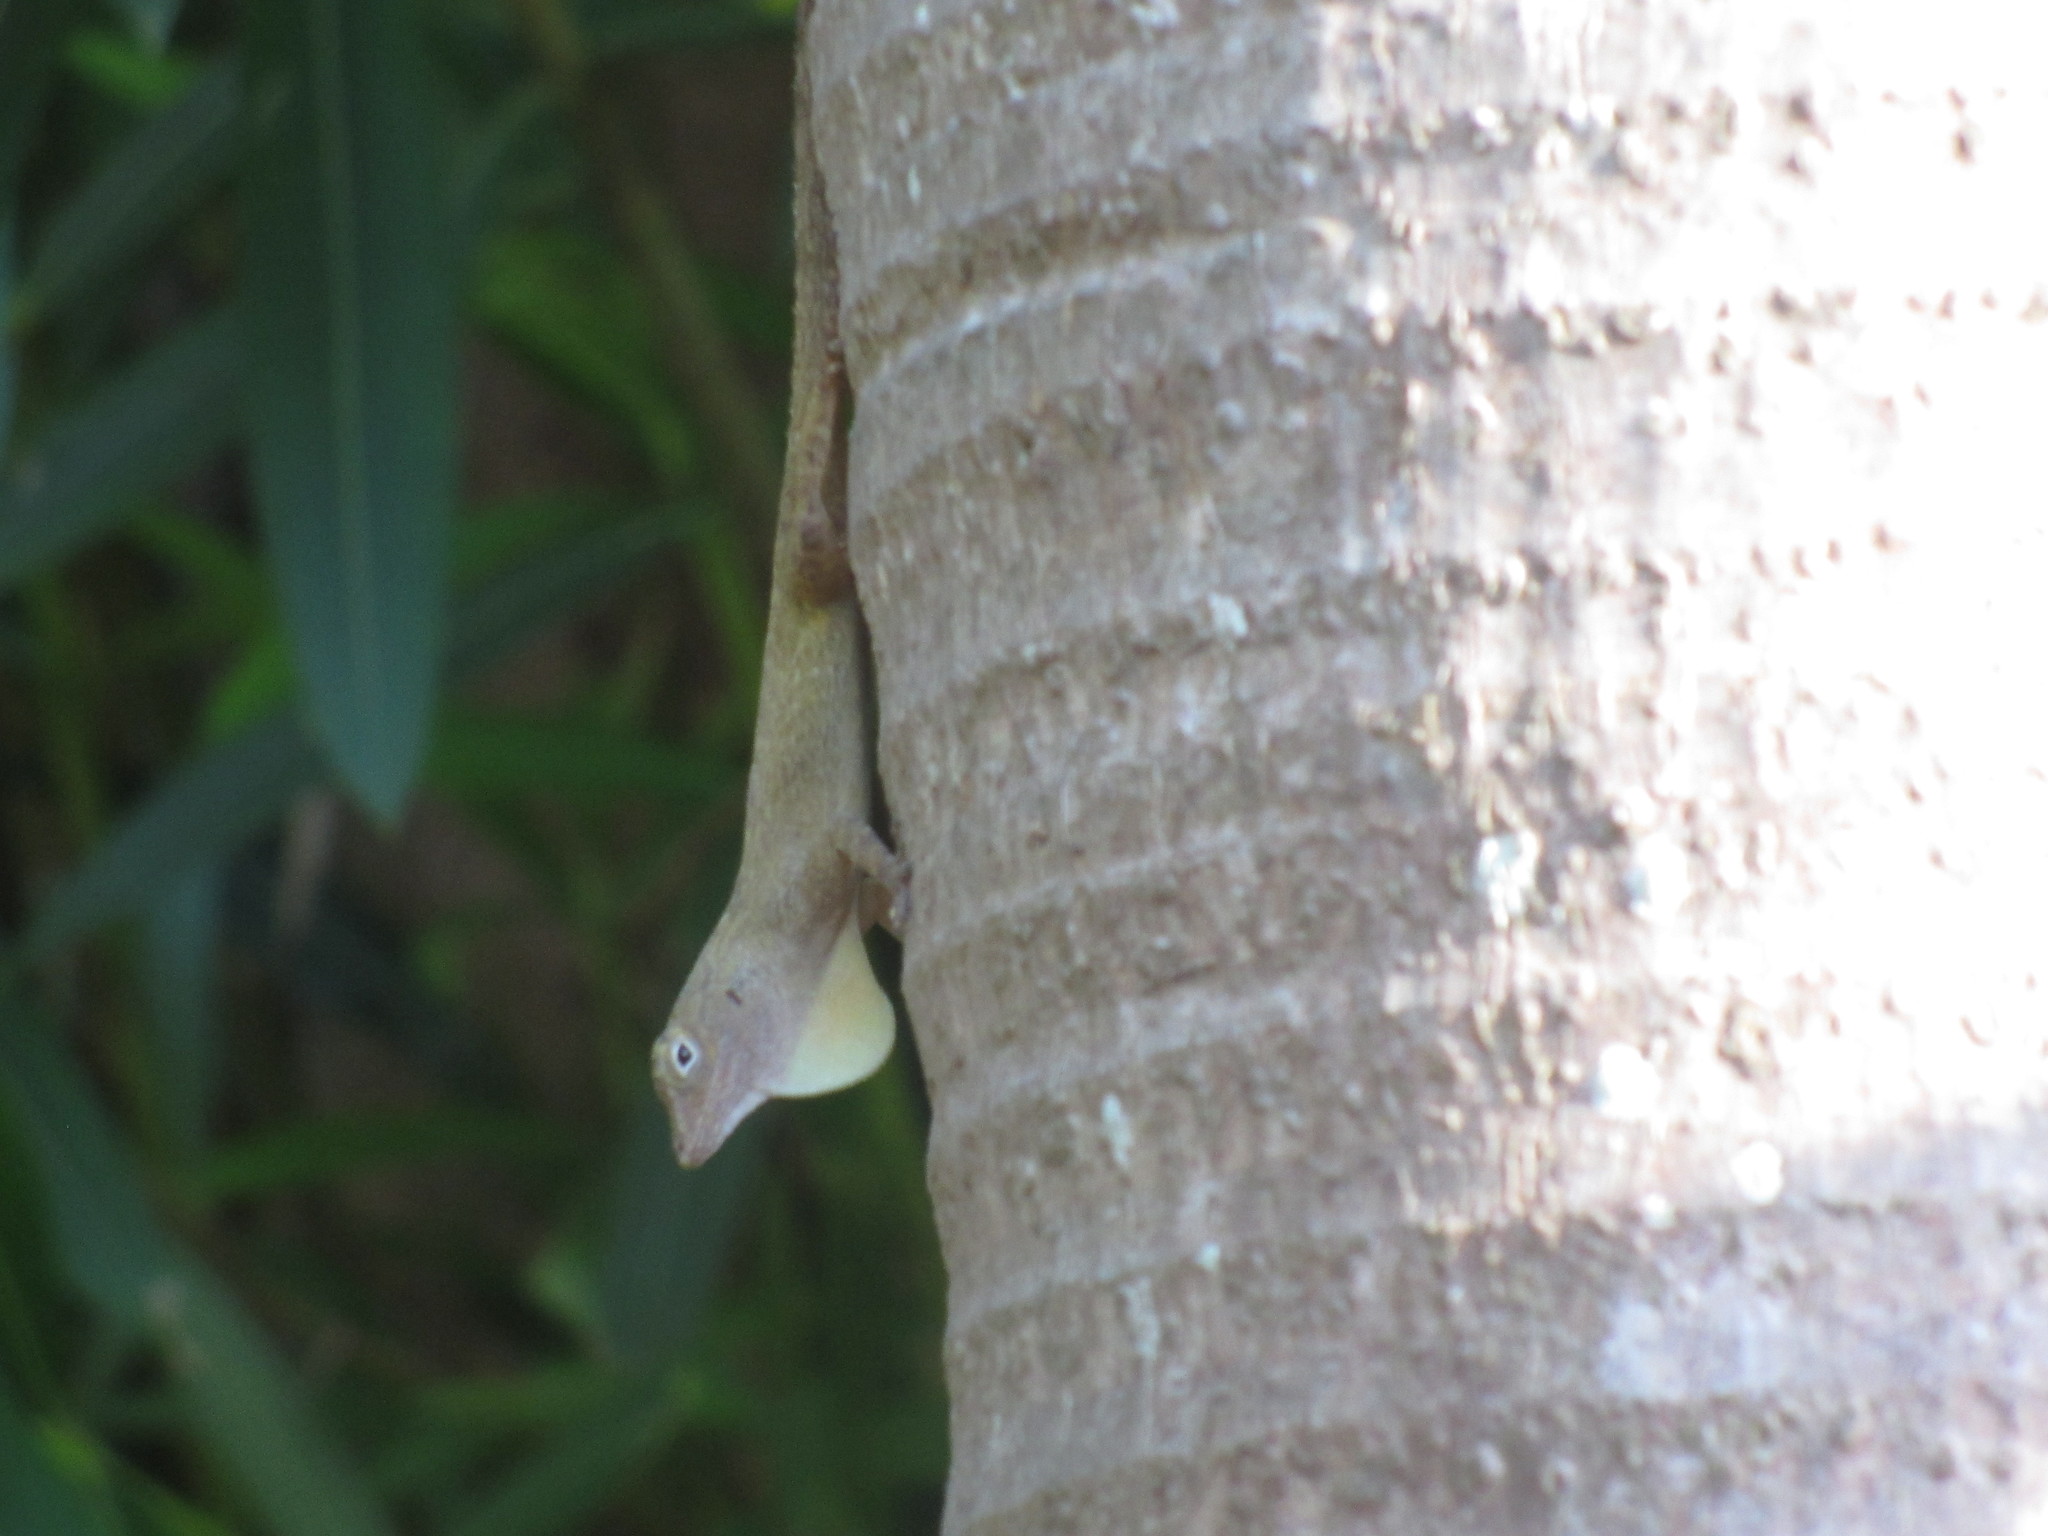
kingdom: Animalia
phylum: Chordata
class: Squamata
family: Dactyloidae
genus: Anolis
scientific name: Anolis distichus
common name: Bark anole
